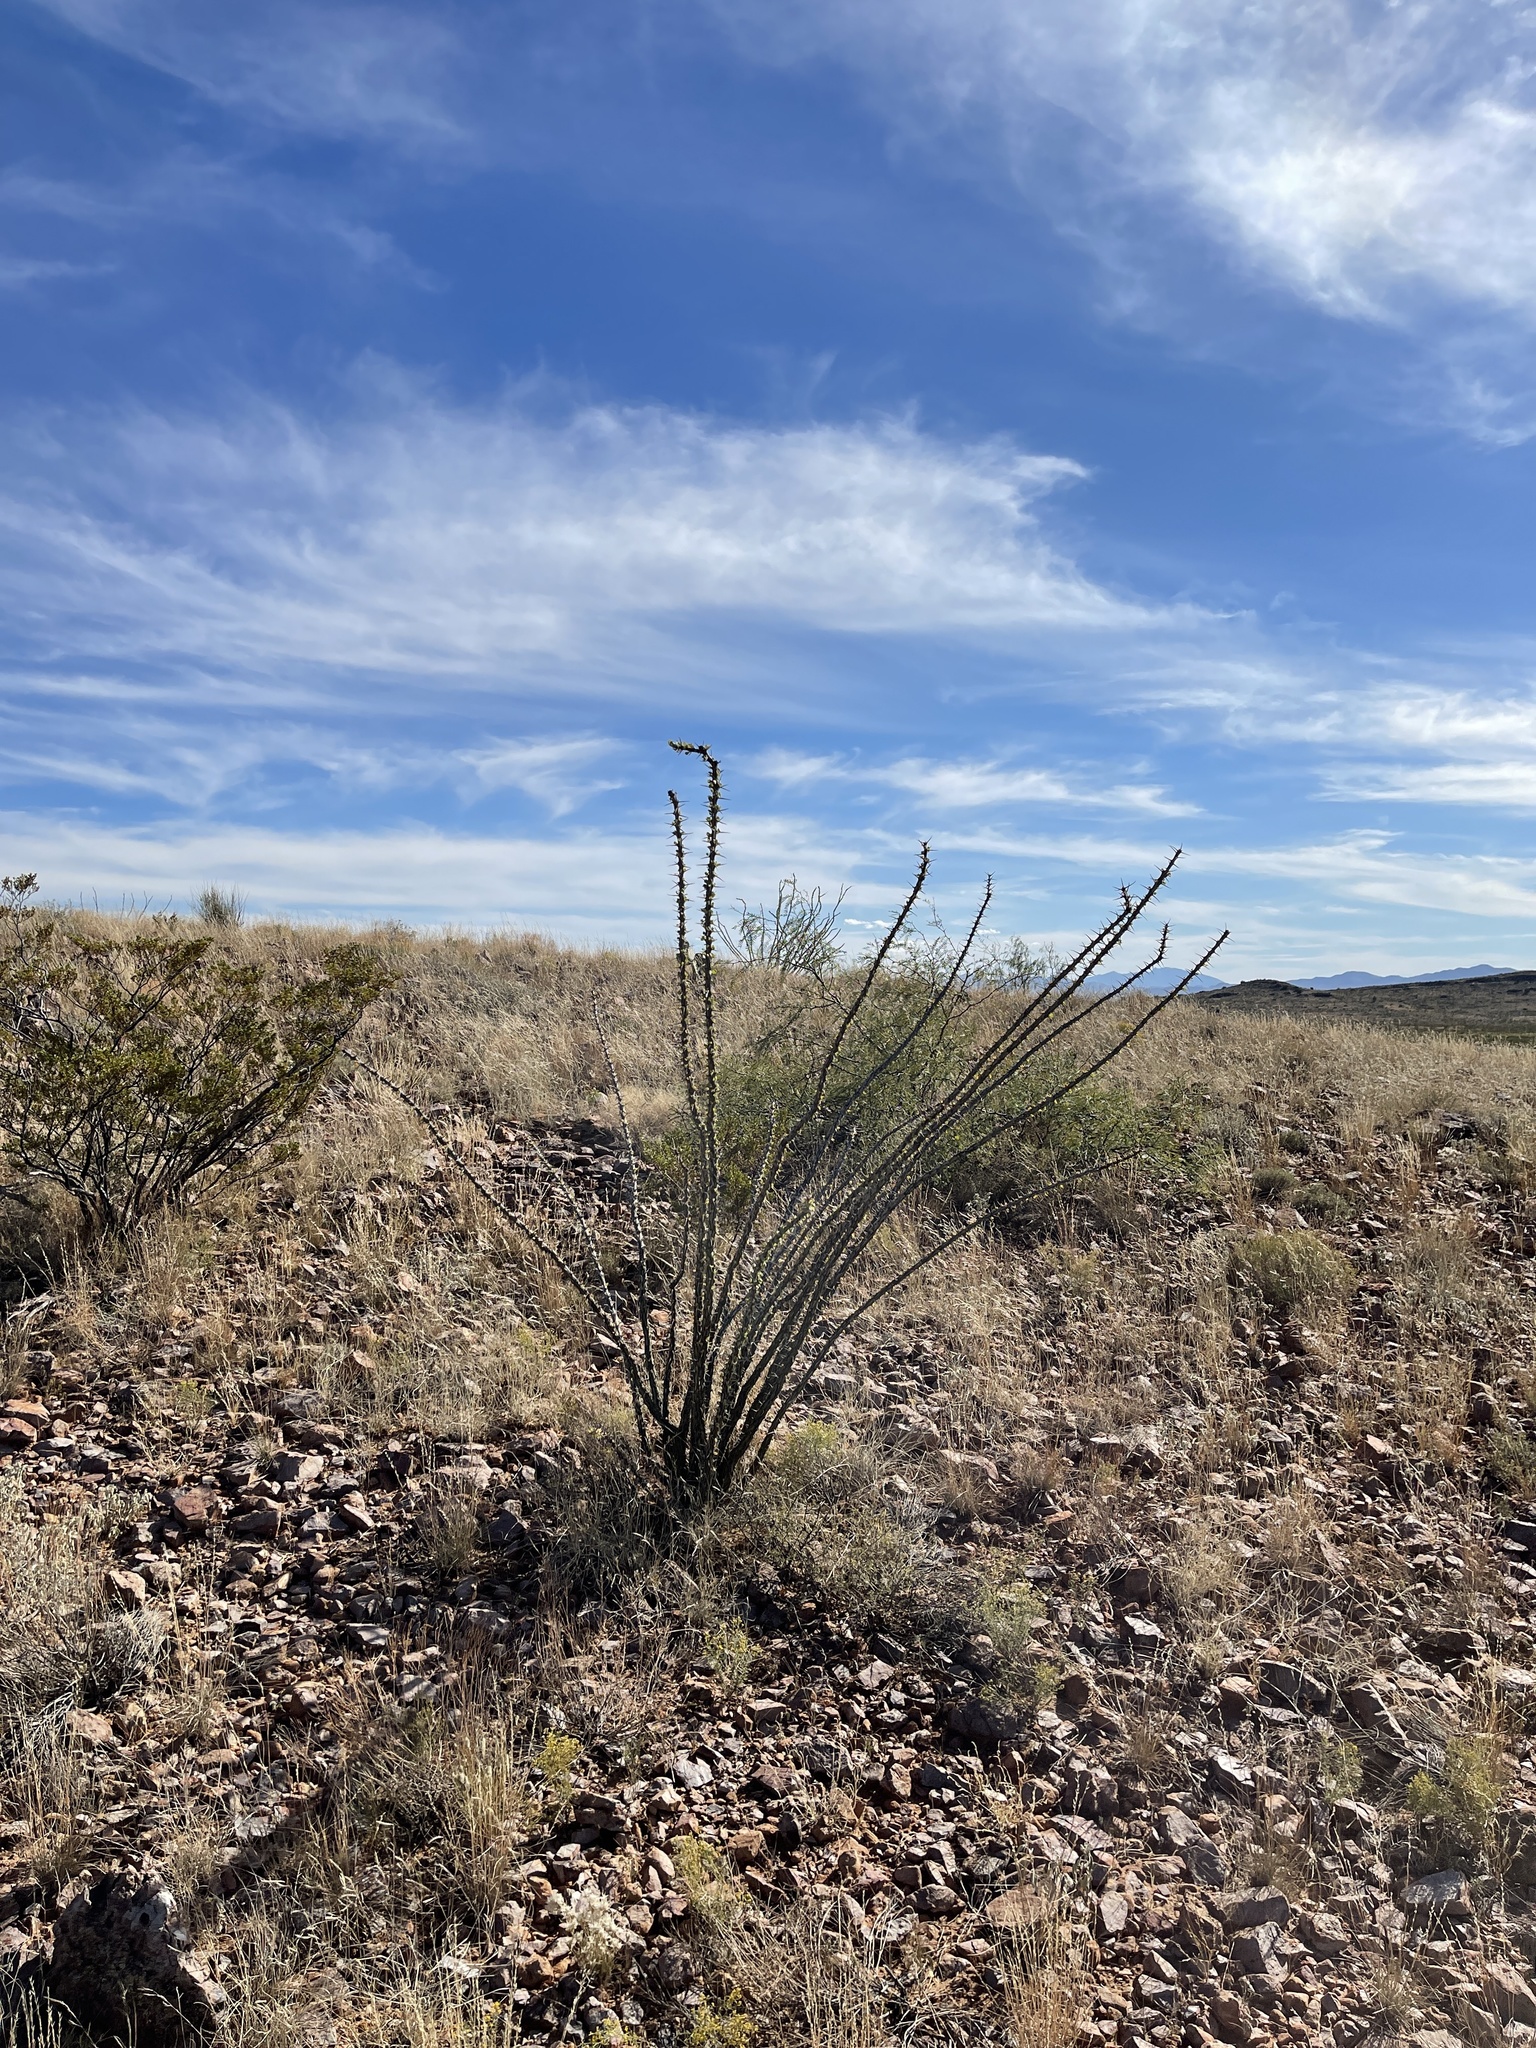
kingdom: Plantae
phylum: Tracheophyta
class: Magnoliopsida
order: Ericales
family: Fouquieriaceae
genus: Fouquieria
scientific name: Fouquieria splendens
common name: Vine-cactus
